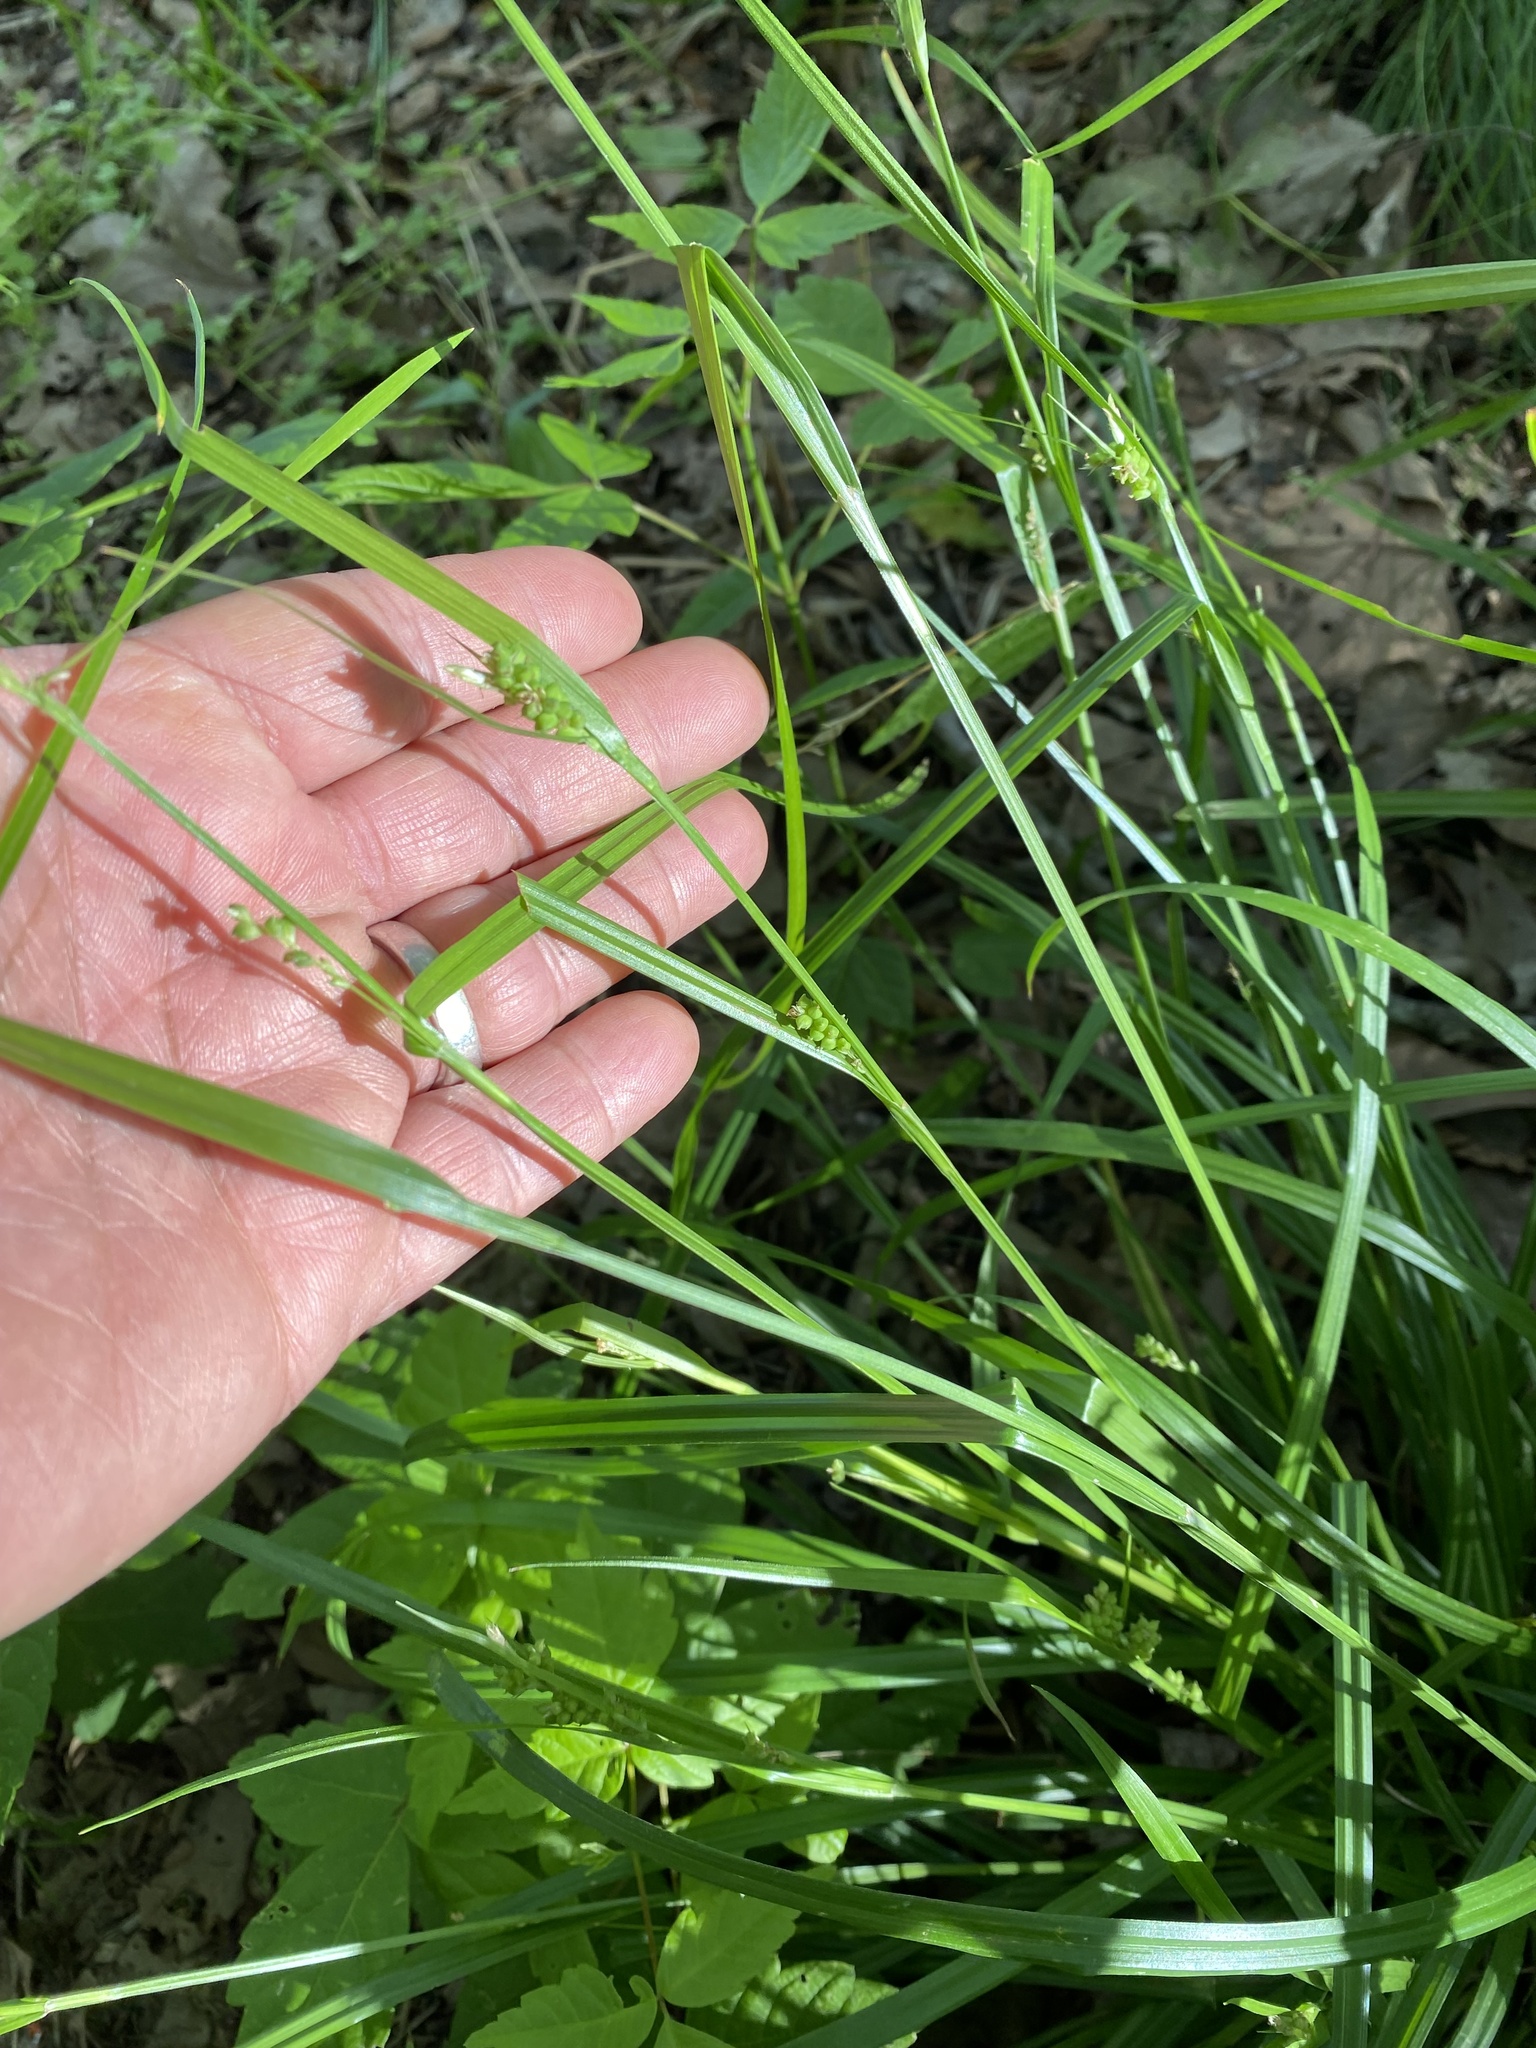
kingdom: Plantae
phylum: Tracheophyta
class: Liliopsida
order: Poales
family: Cyperaceae
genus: Carex
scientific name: Carex blanda
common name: Bland sedge
